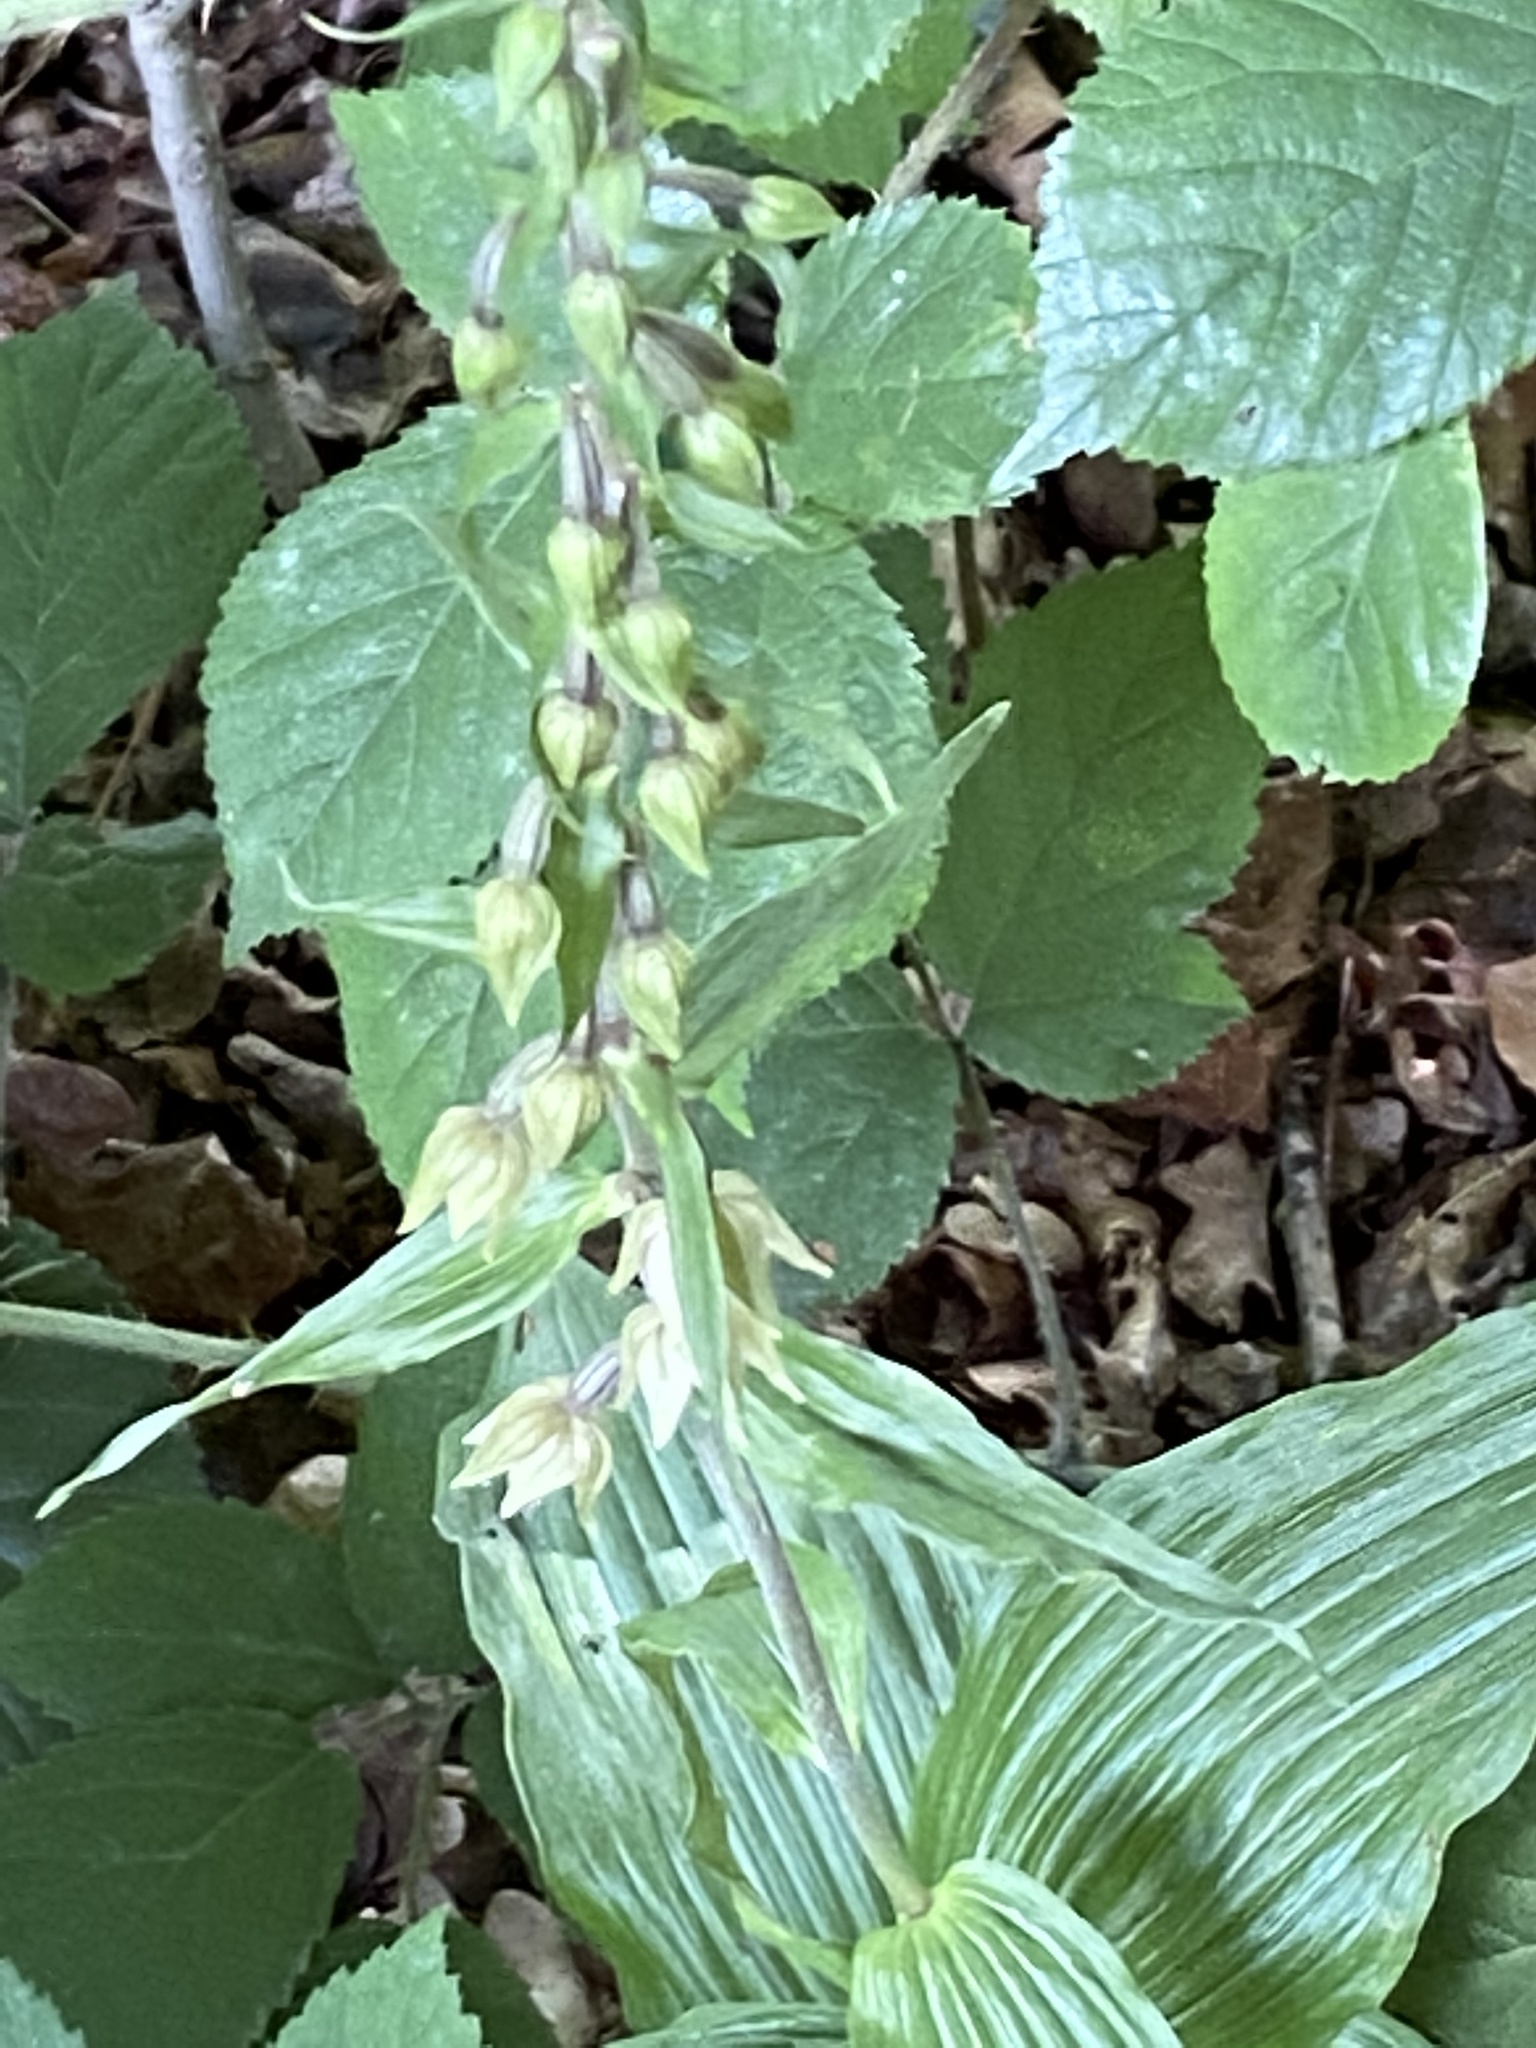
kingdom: Plantae
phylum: Tracheophyta
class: Liliopsida
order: Asparagales
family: Orchidaceae
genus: Epipactis
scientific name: Epipactis helleborine
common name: Broad-leaved helleborine
